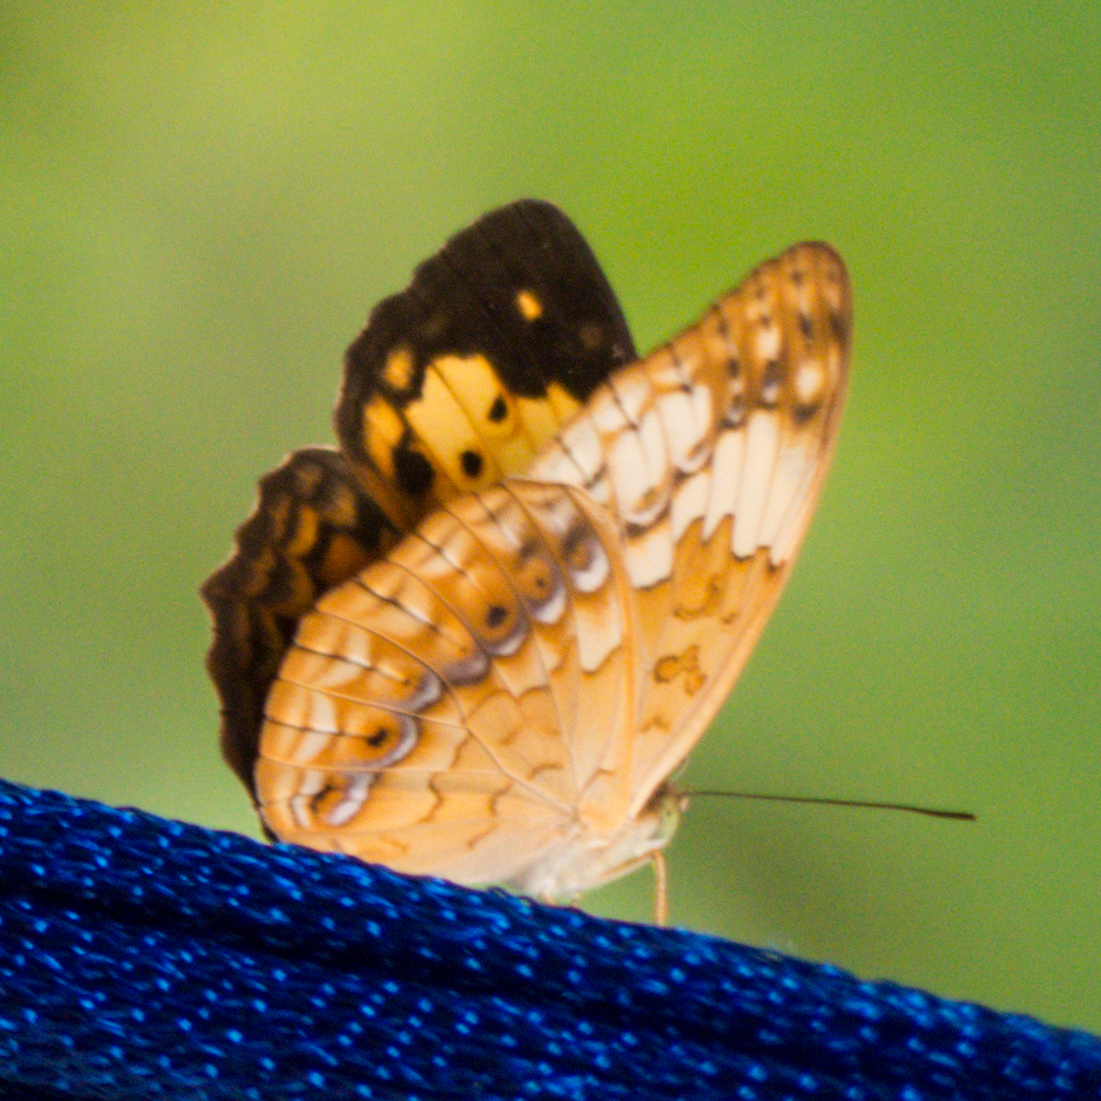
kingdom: Animalia
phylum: Arthropoda
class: Insecta
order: Lepidoptera
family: Nymphalidae
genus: Cupha
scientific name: Cupha erymanthis
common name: Rustic
